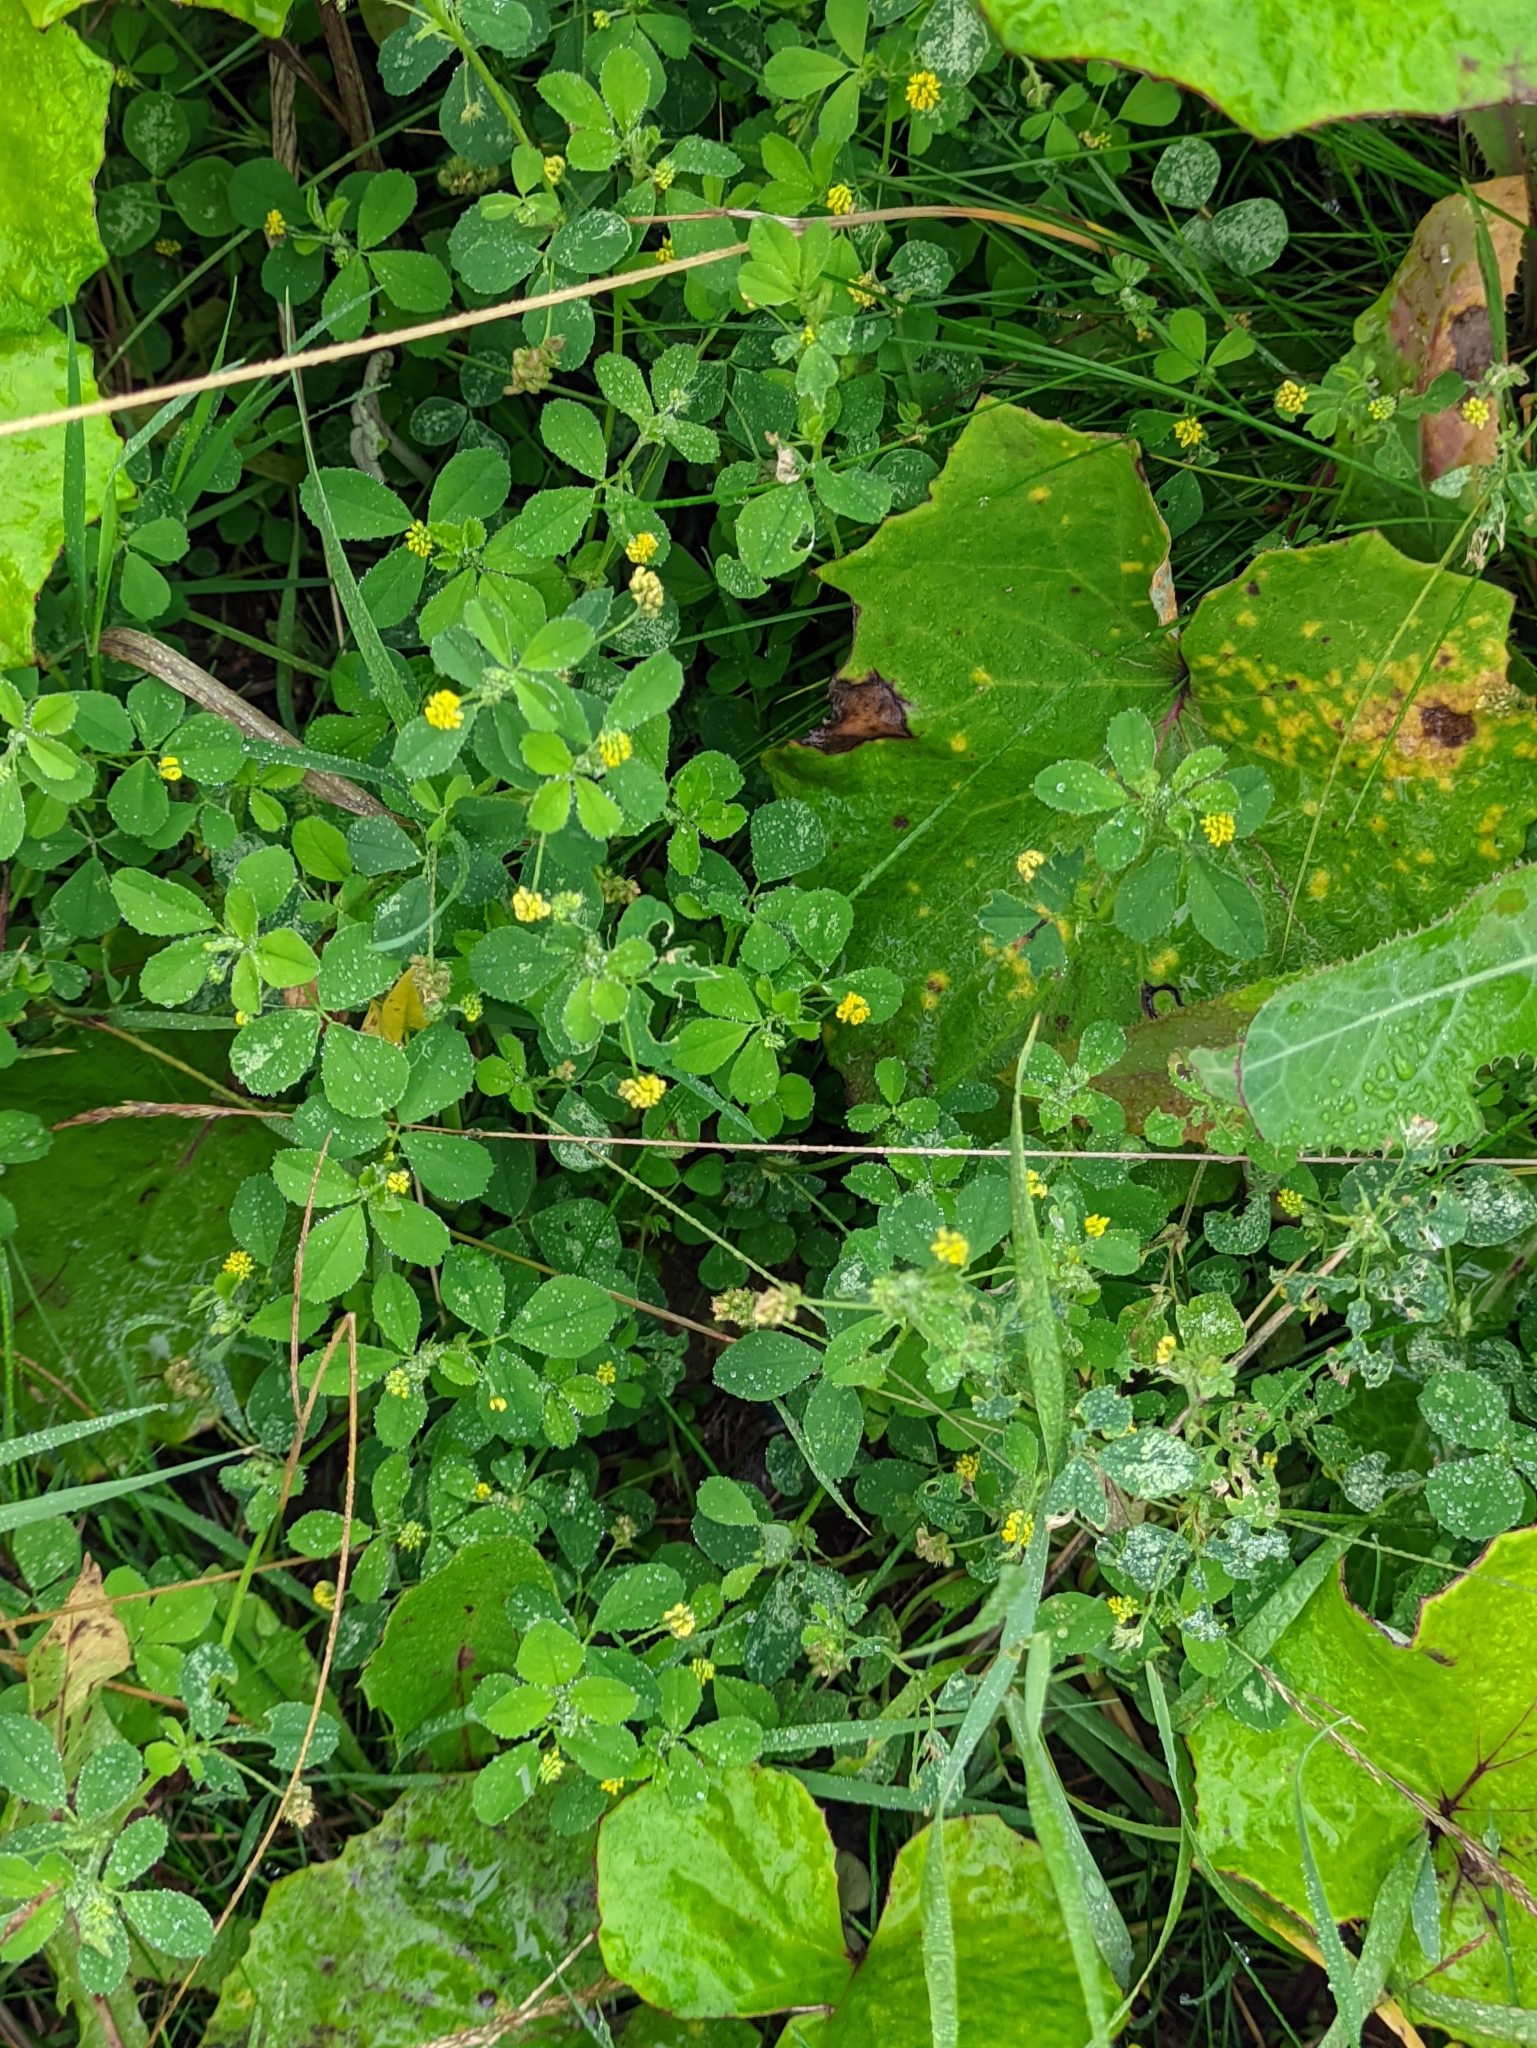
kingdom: Plantae
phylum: Tracheophyta
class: Magnoliopsida
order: Fabales
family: Fabaceae
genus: Medicago
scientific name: Medicago lupulina
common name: Black medick
